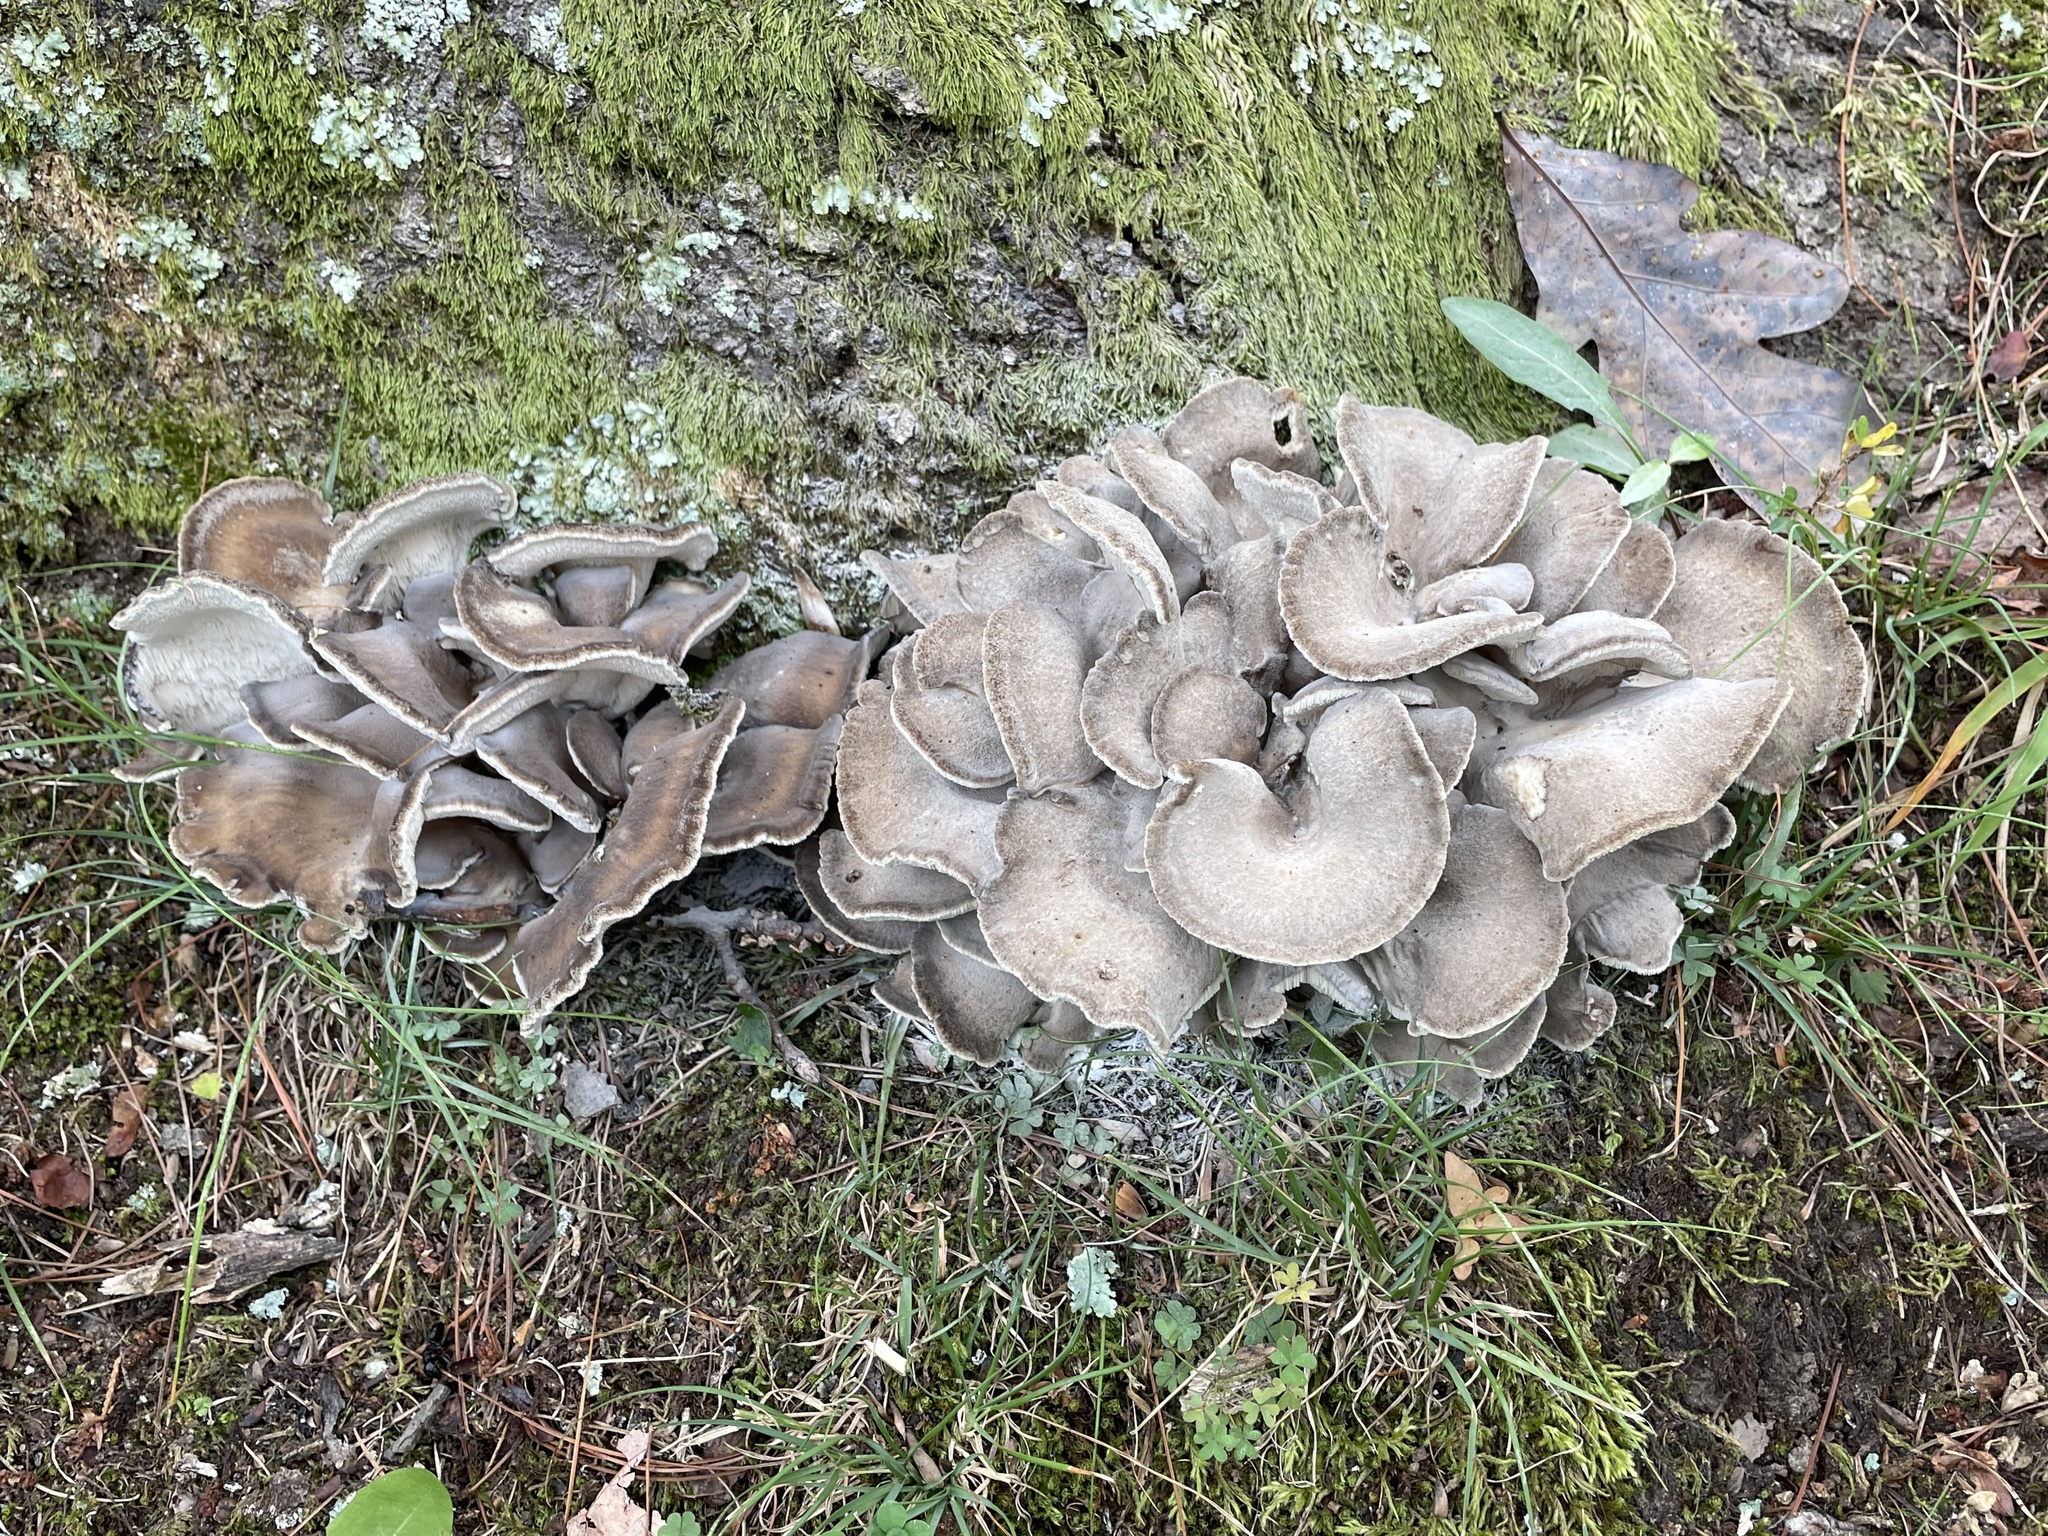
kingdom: Fungi
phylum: Basidiomycota
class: Agaricomycetes
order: Polyporales
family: Grifolaceae
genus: Grifola
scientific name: Grifola frondosa
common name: Hen of the woods
